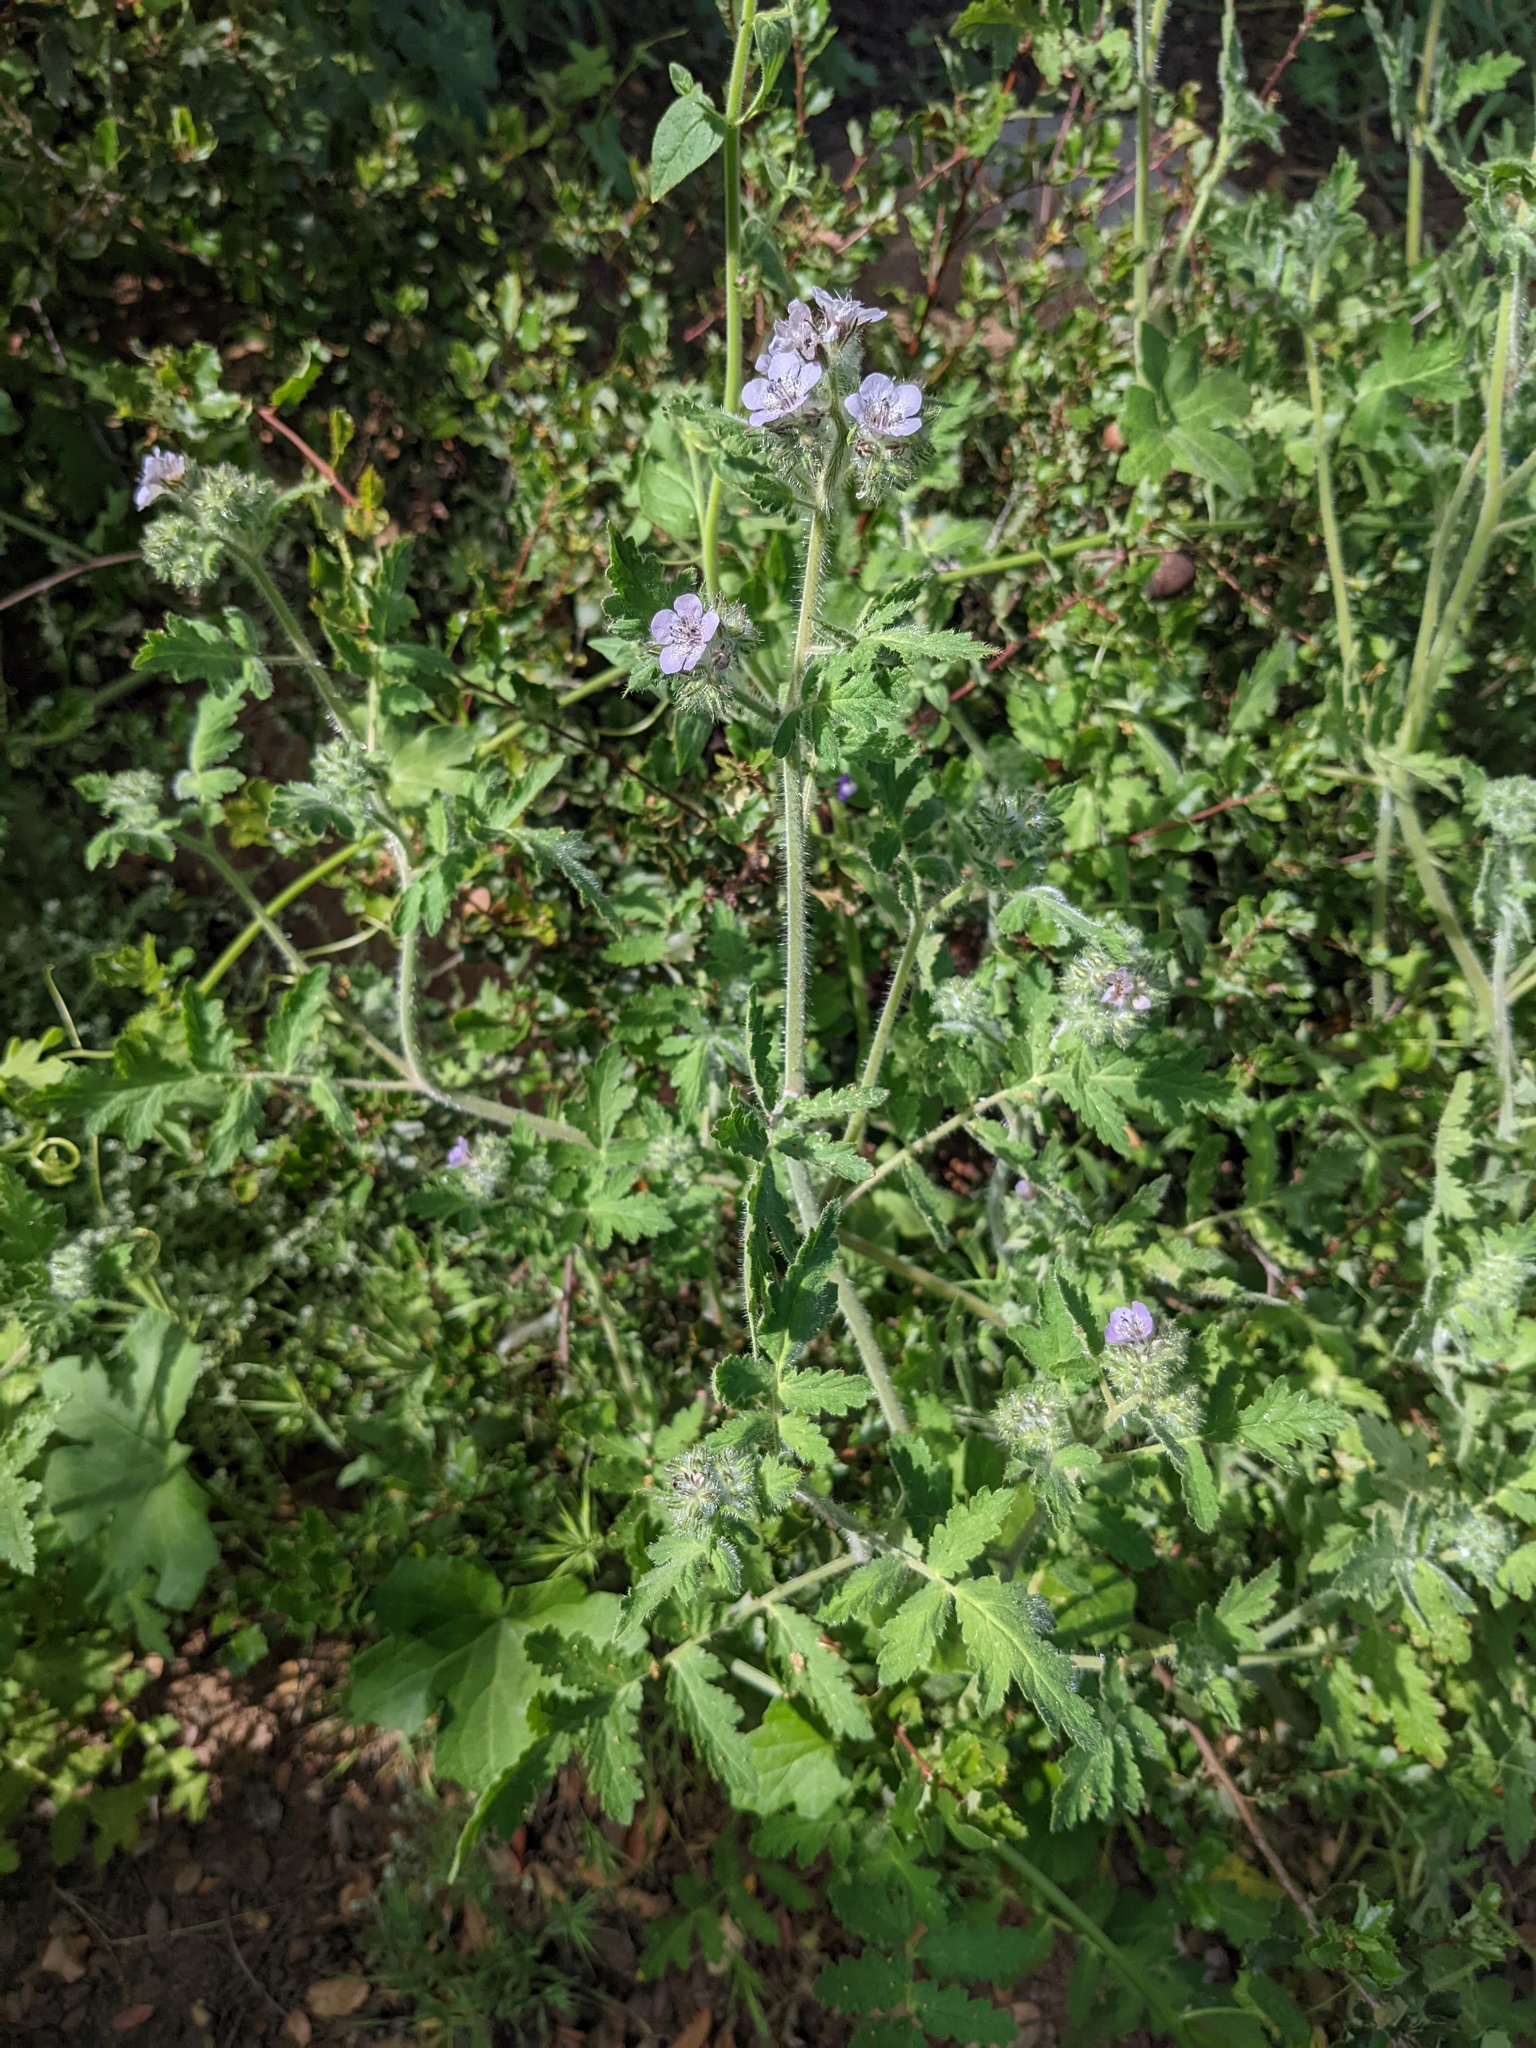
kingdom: Plantae
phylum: Tracheophyta
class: Magnoliopsida
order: Boraginales
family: Hydrophyllaceae
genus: Phacelia
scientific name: Phacelia cicutaria
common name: Caterpillar phacelia
